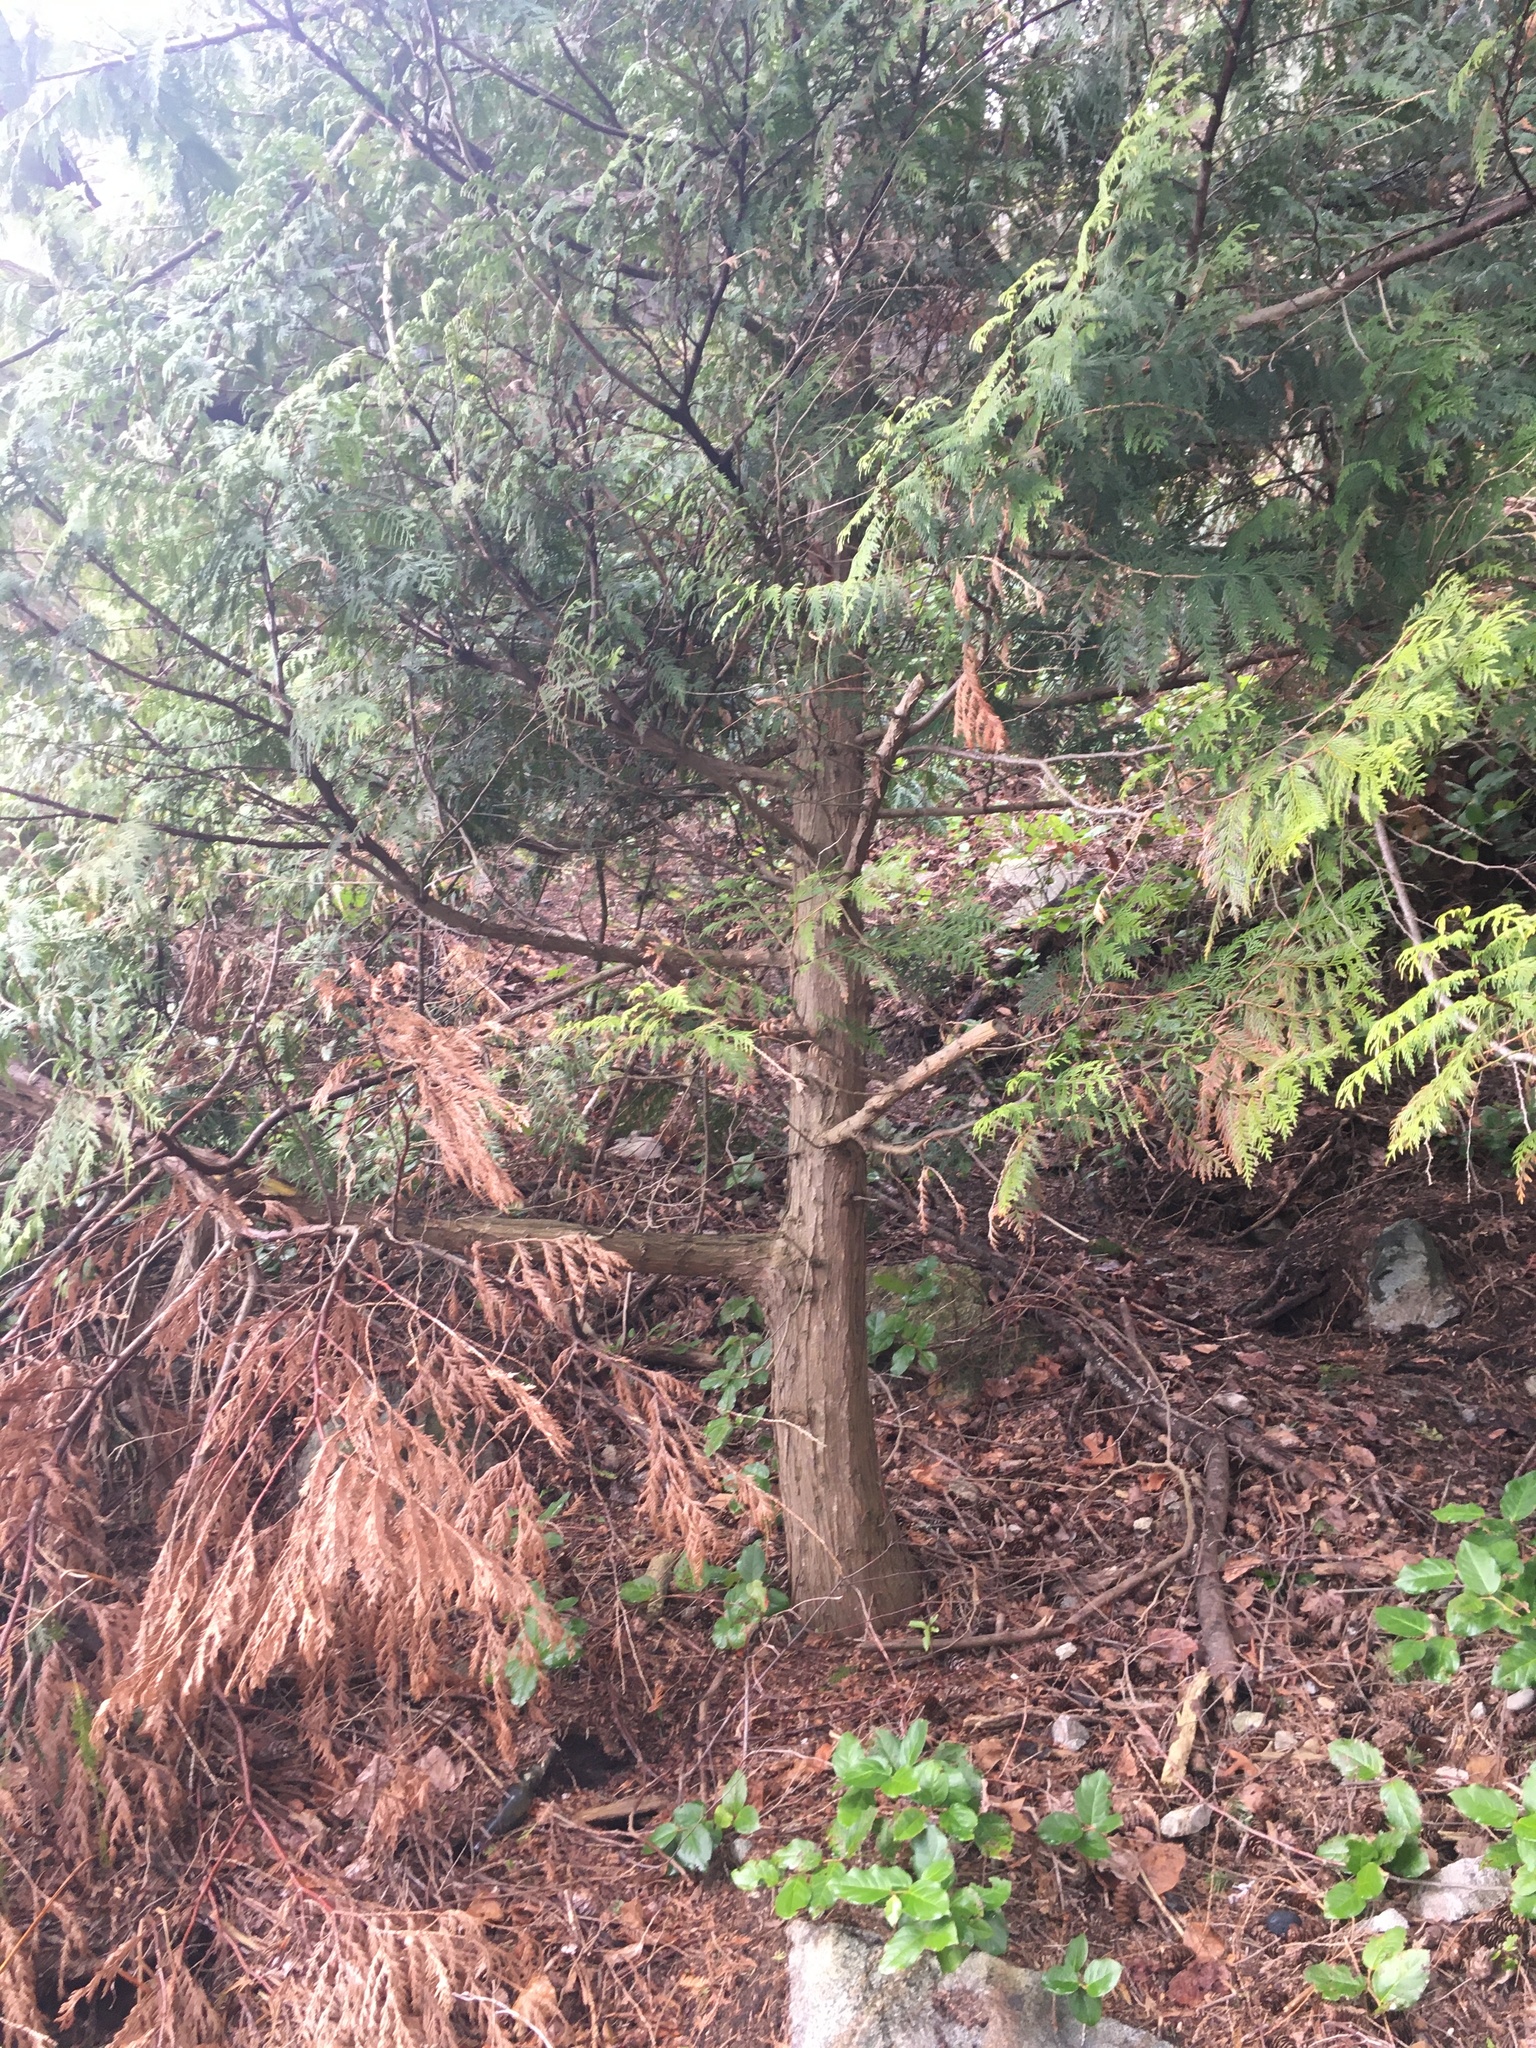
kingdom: Plantae
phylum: Tracheophyta
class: Pinopsida
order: Pinales
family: Cupressaceae
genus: Thuja
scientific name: Thuja plicata
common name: Western red-cedar
